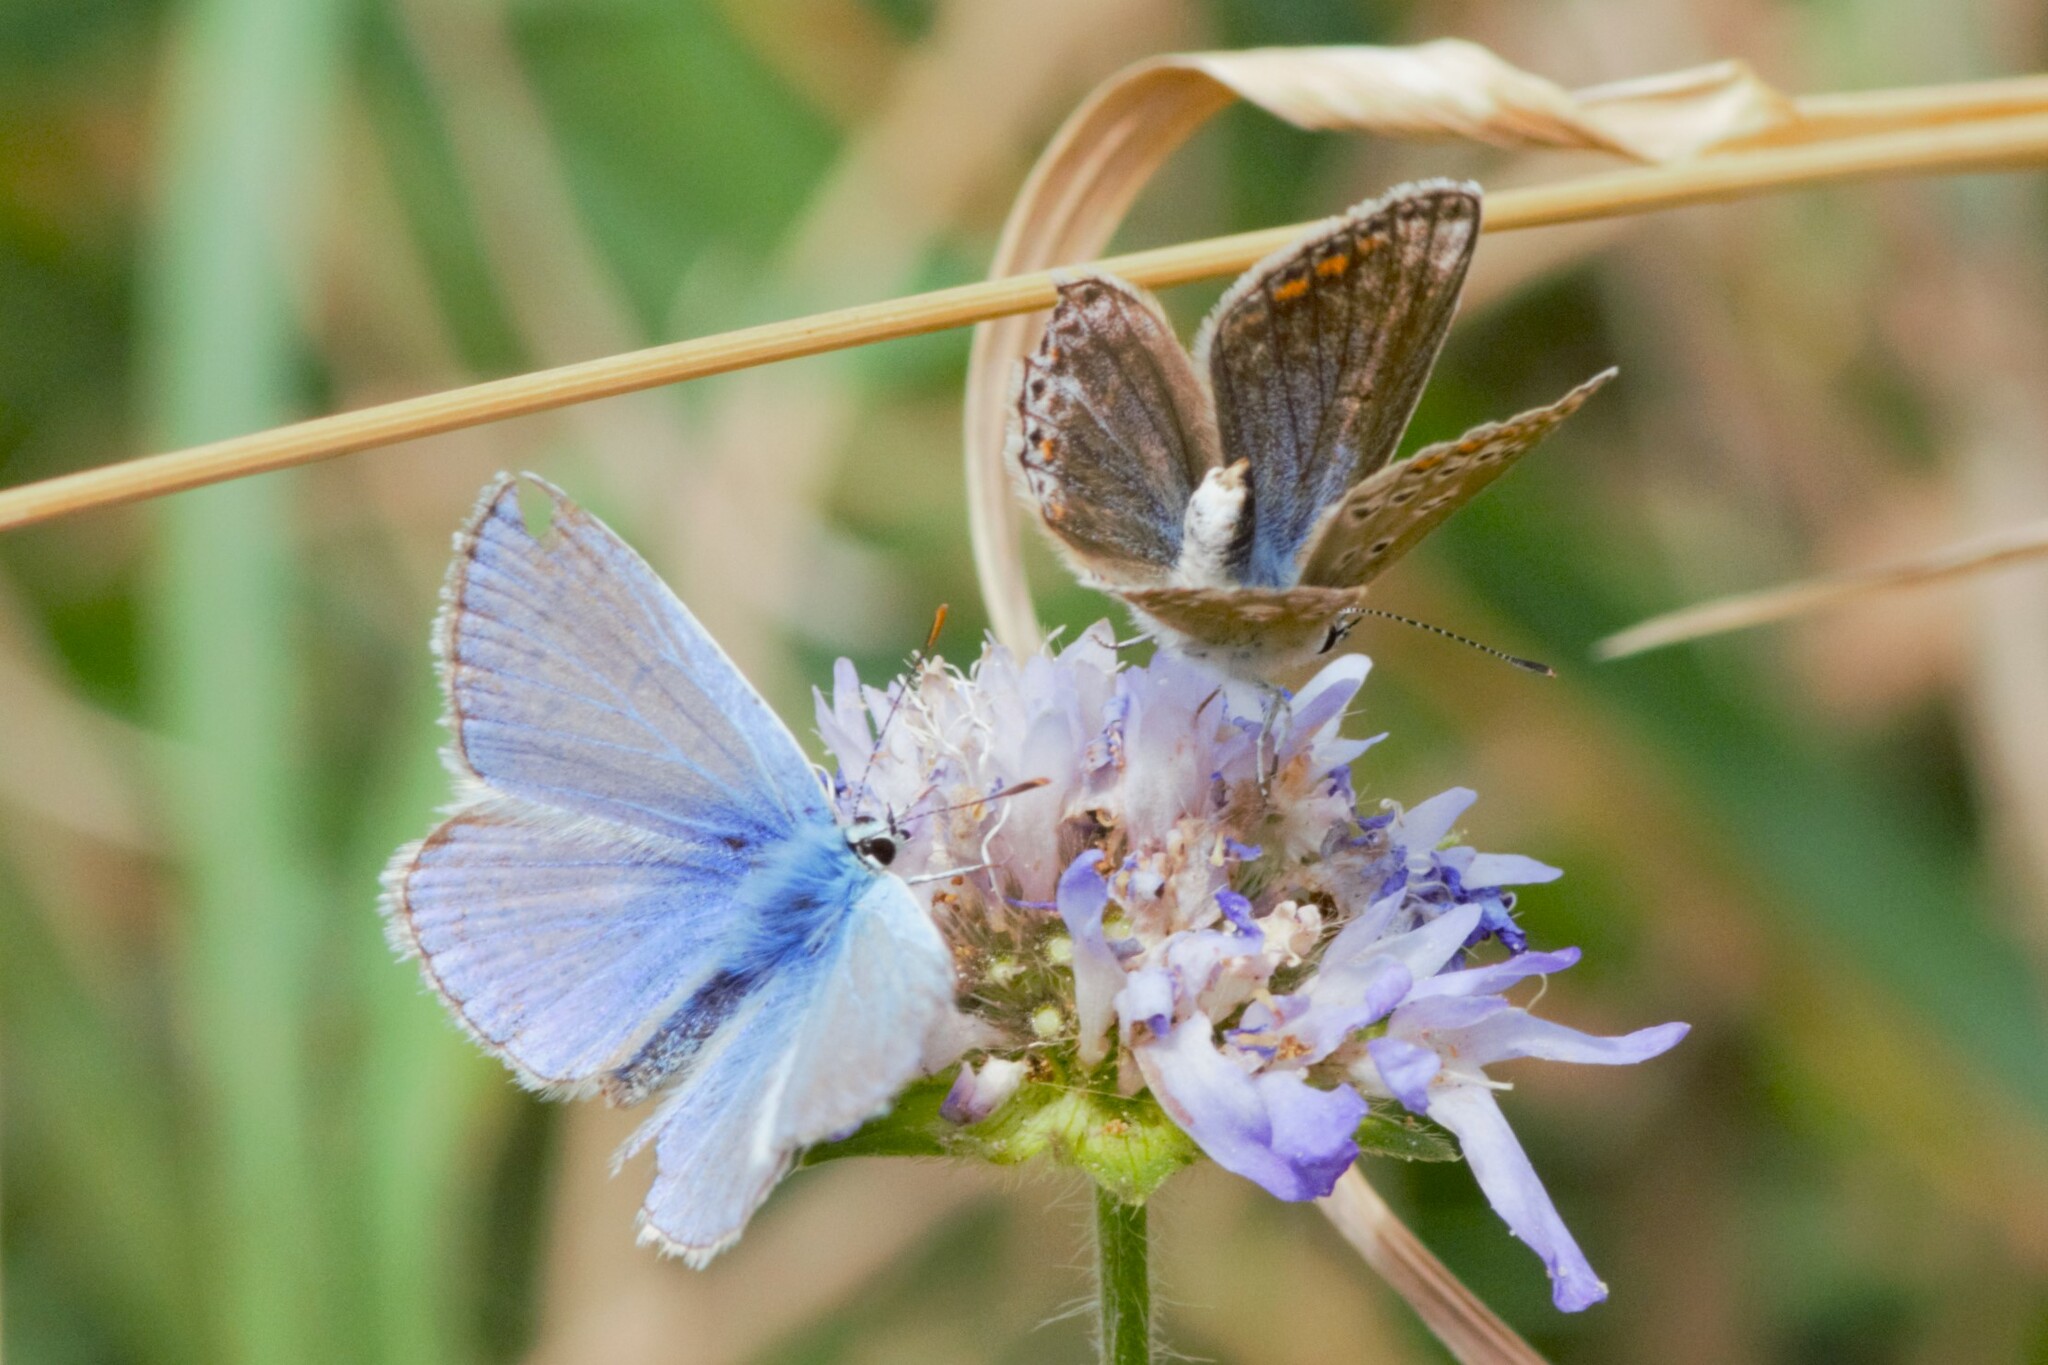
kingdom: Animalia
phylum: Arthropoda
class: Insecta
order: Lepidoptera
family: Lycaenidae
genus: Polyommatus
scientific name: Polyommatus icarus
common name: Common blue
